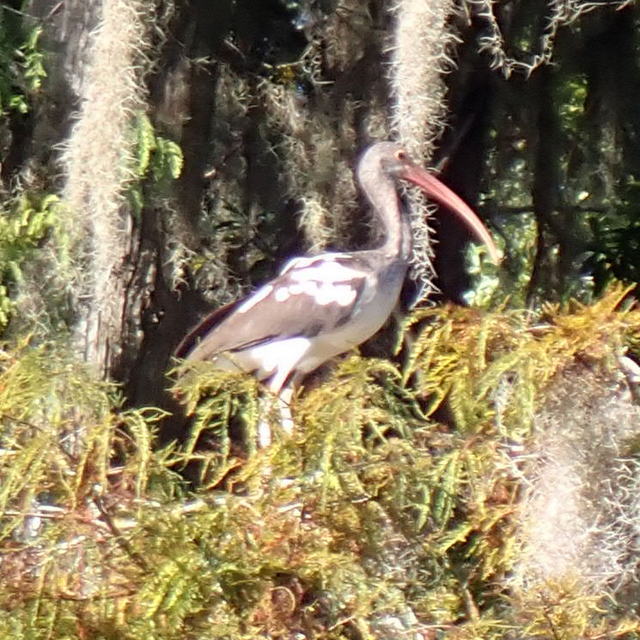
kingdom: Animalia
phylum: Chordata
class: Aves
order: Pelecaniformes
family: Threskiornithidae
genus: Eudocimus
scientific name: Eudocimus albus
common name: White ibis
